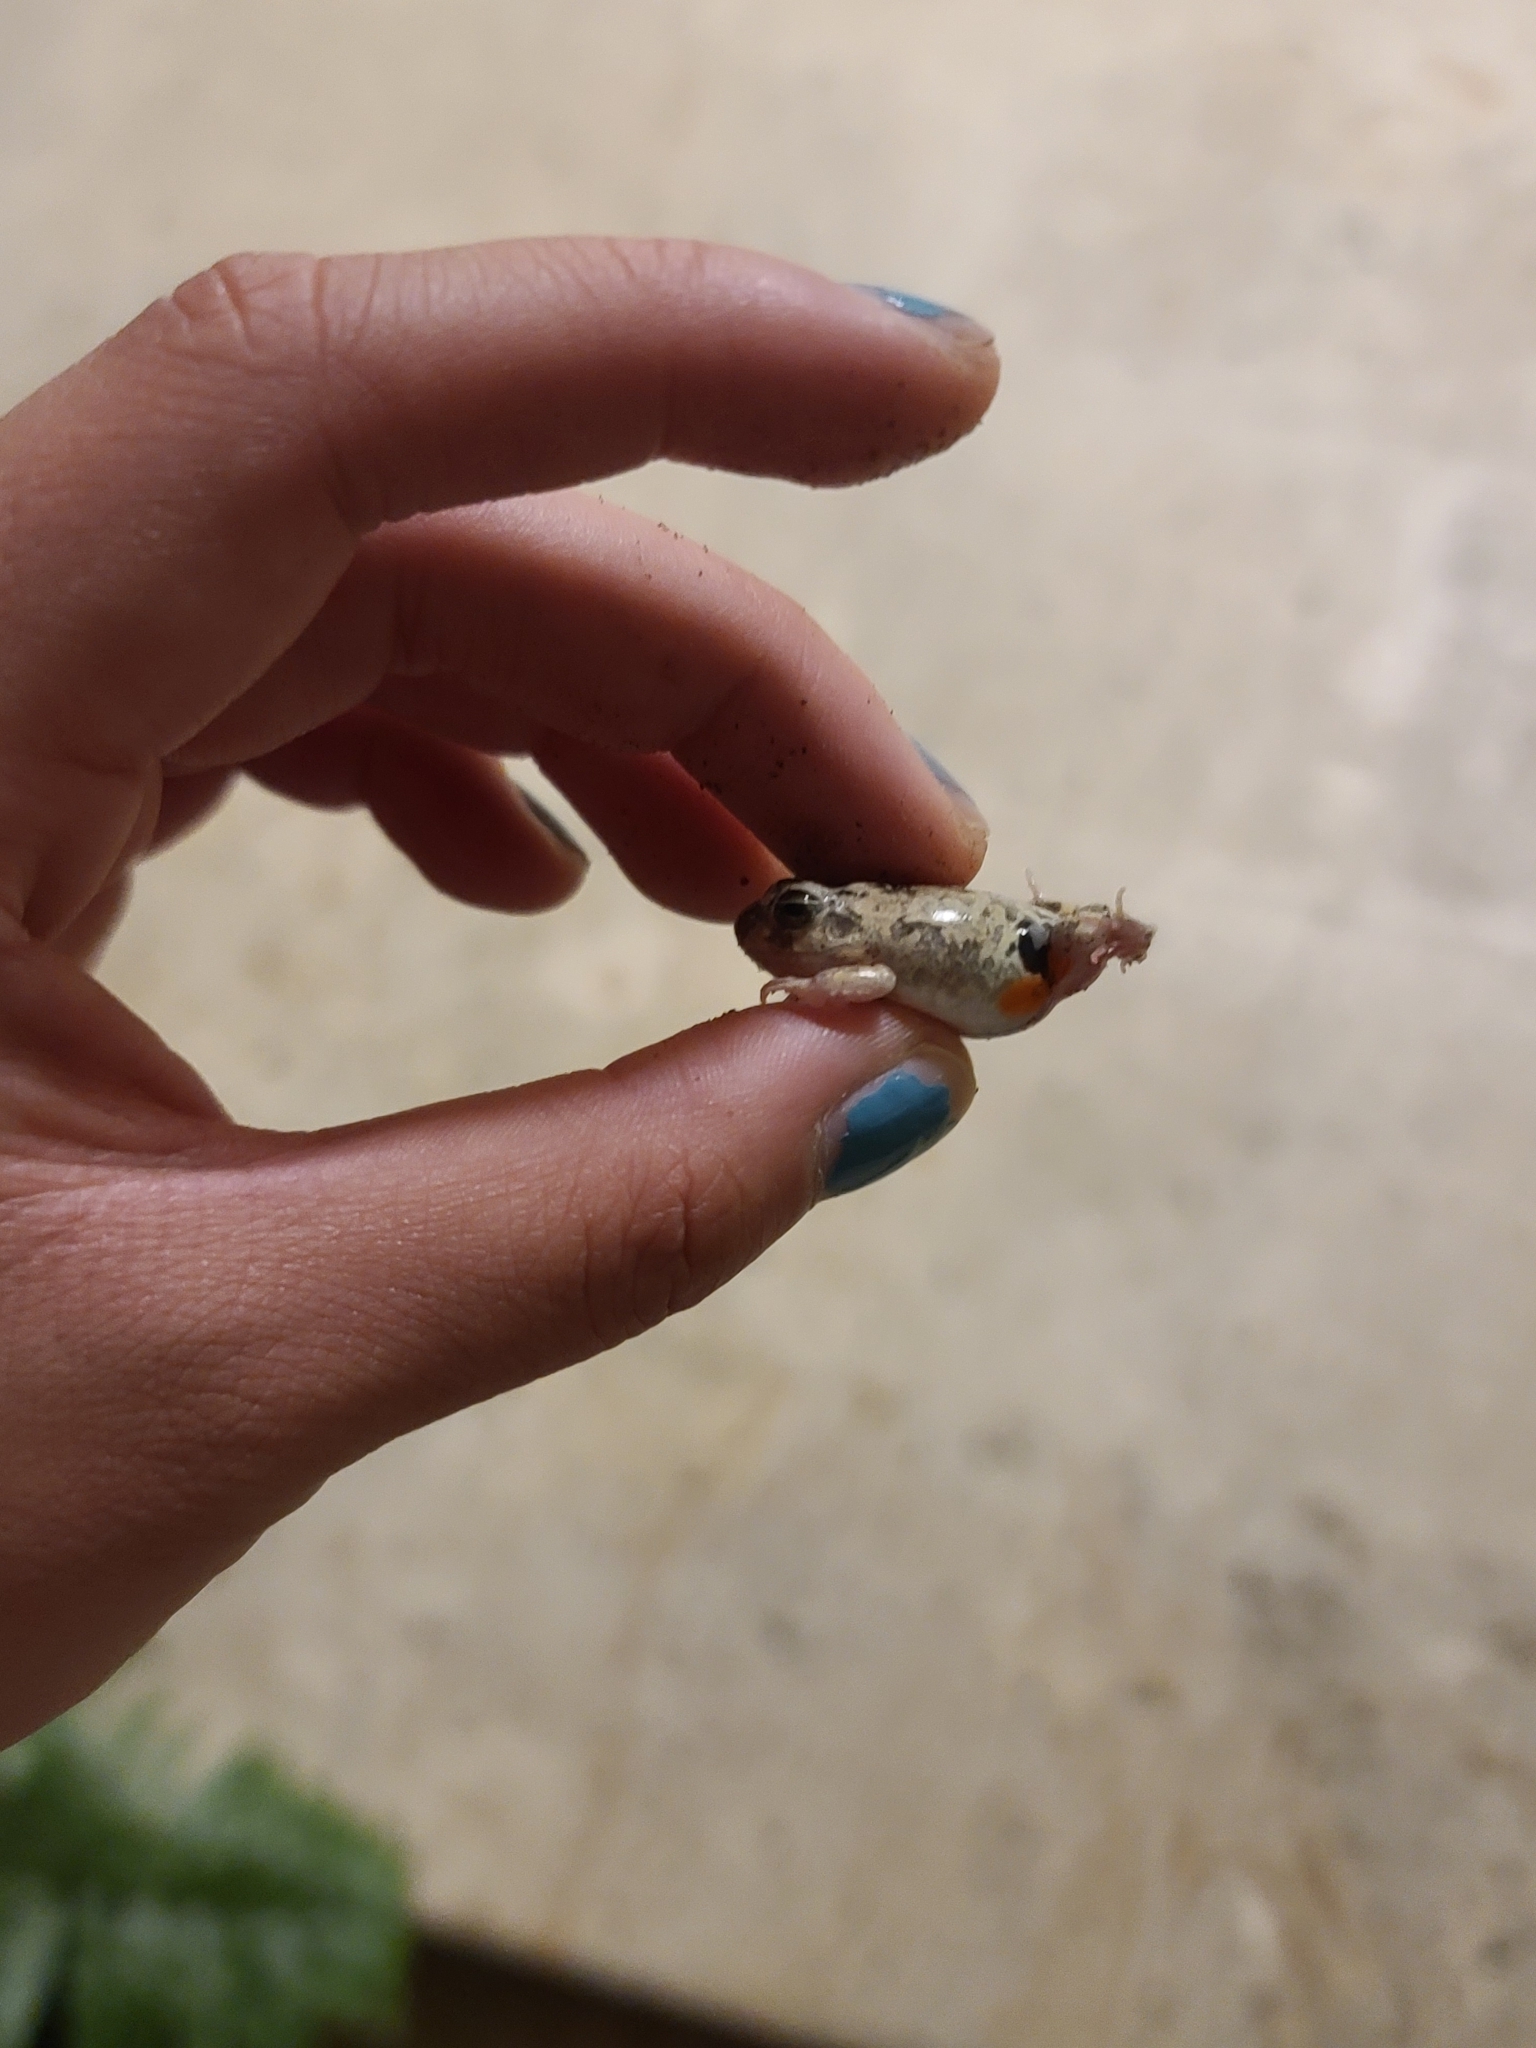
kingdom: Animalia
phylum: Chordata
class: Amphibia
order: Anura
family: Leptodactylidae
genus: Pleurodema
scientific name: Pleurodema brachyops
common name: Colombian four-eyed frog
